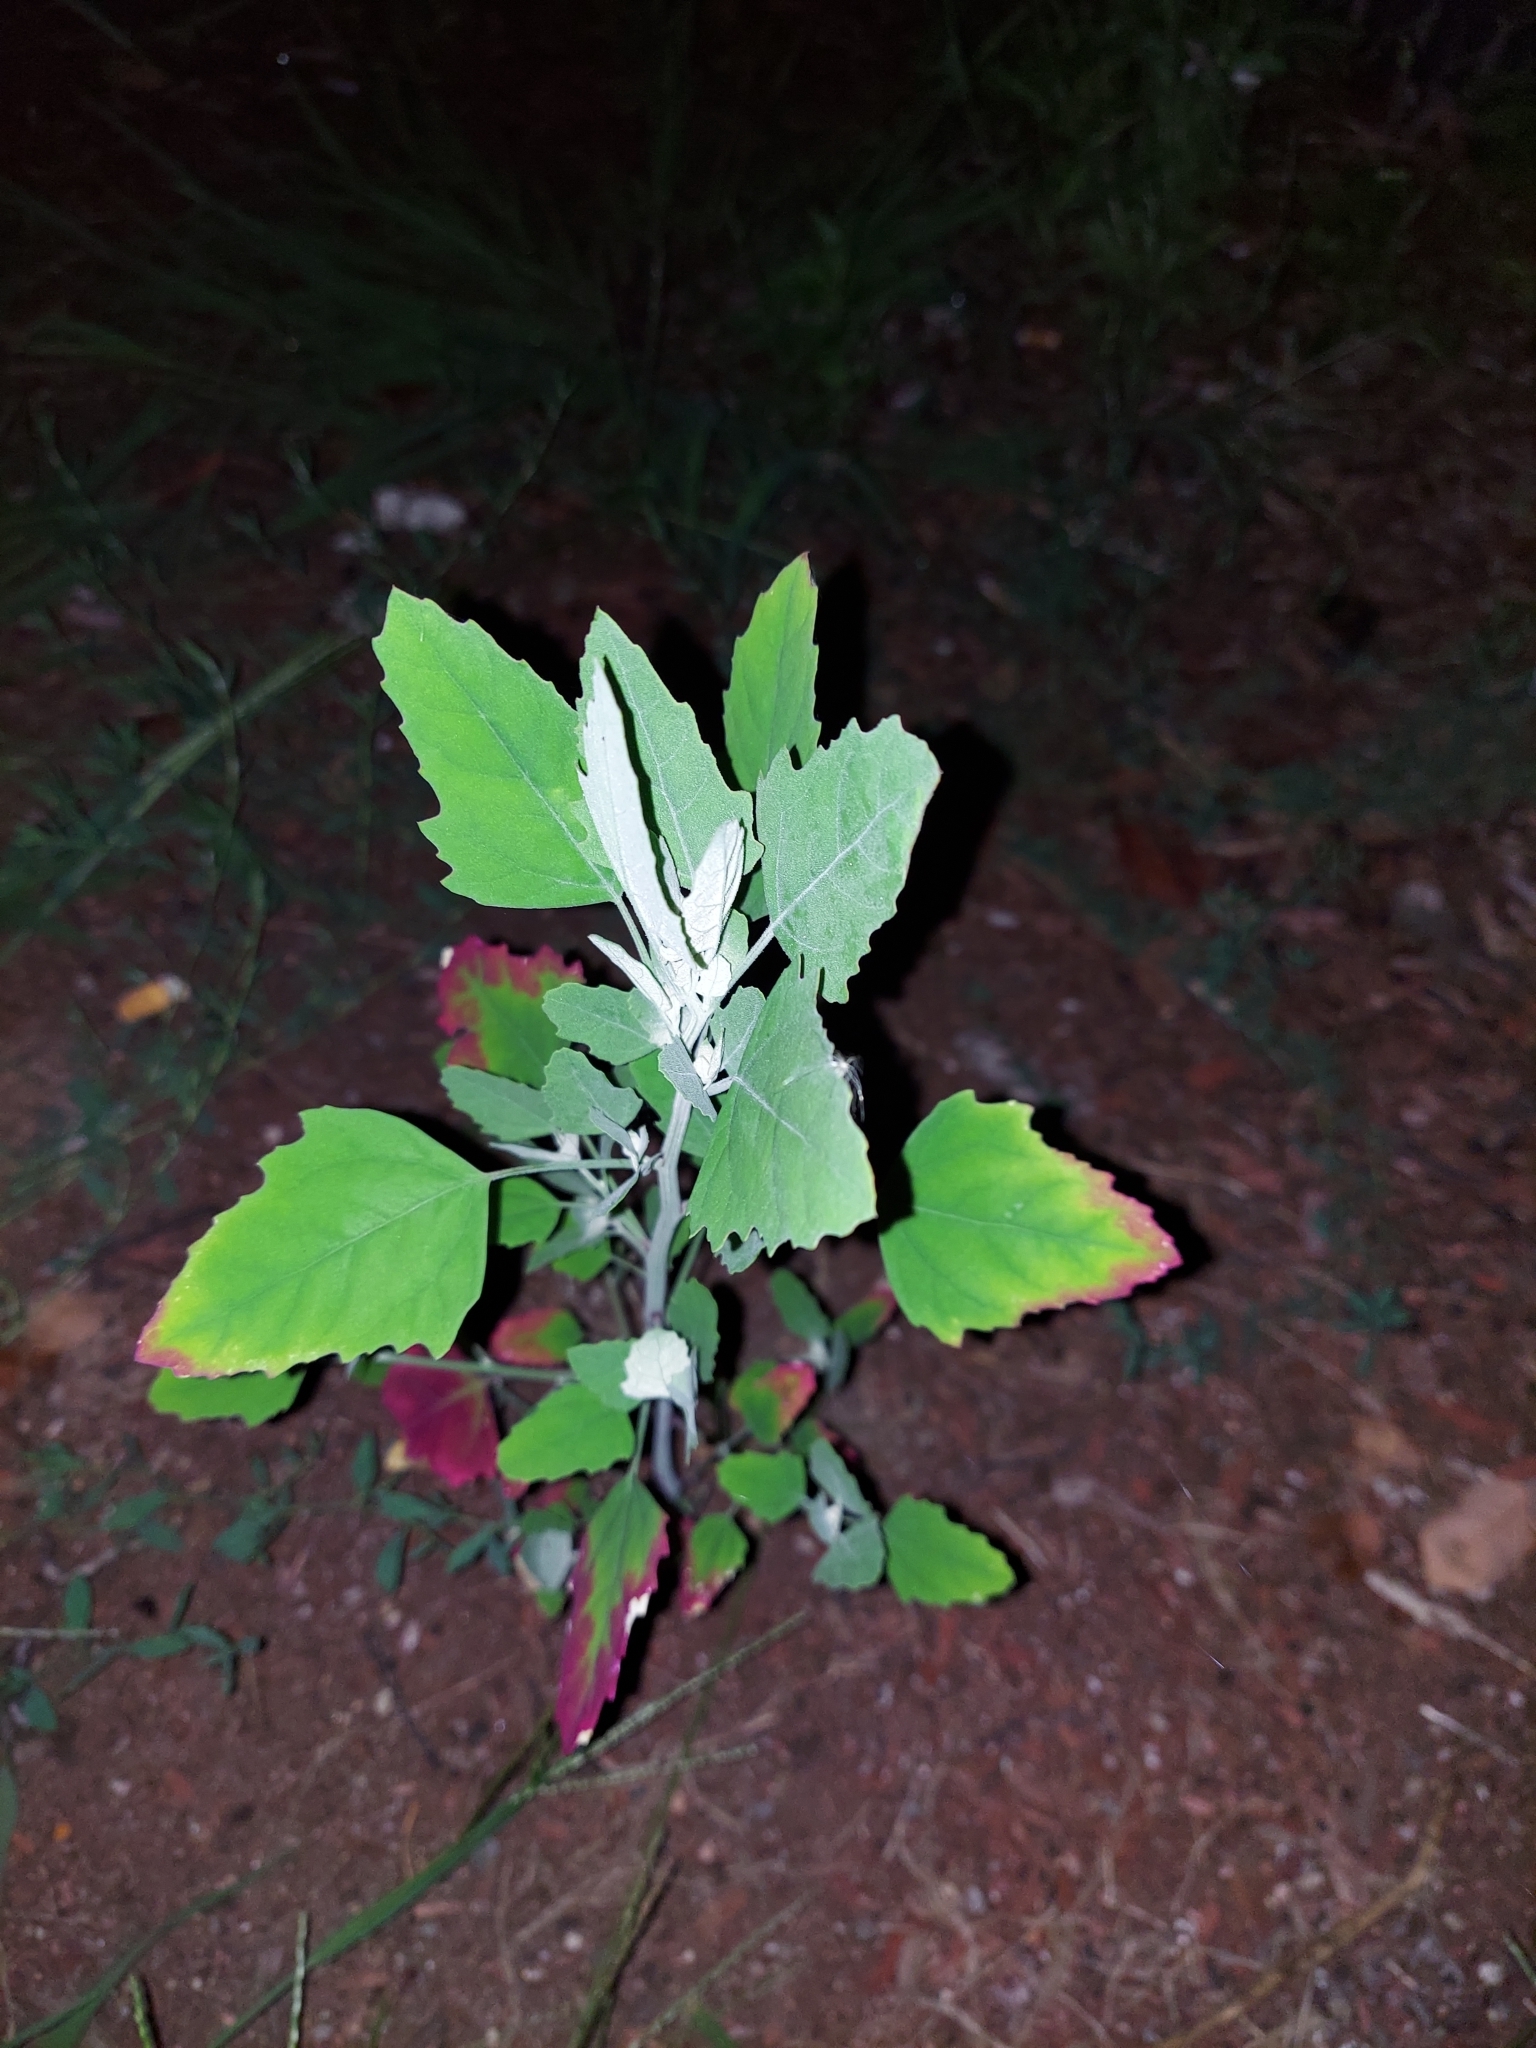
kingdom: Plantae
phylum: Tracheophyta
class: Magnoliopsida
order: Caryophyllales
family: Amaranthaceae
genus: Chenopodium
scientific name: Chenopodium album
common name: Fat-hen
